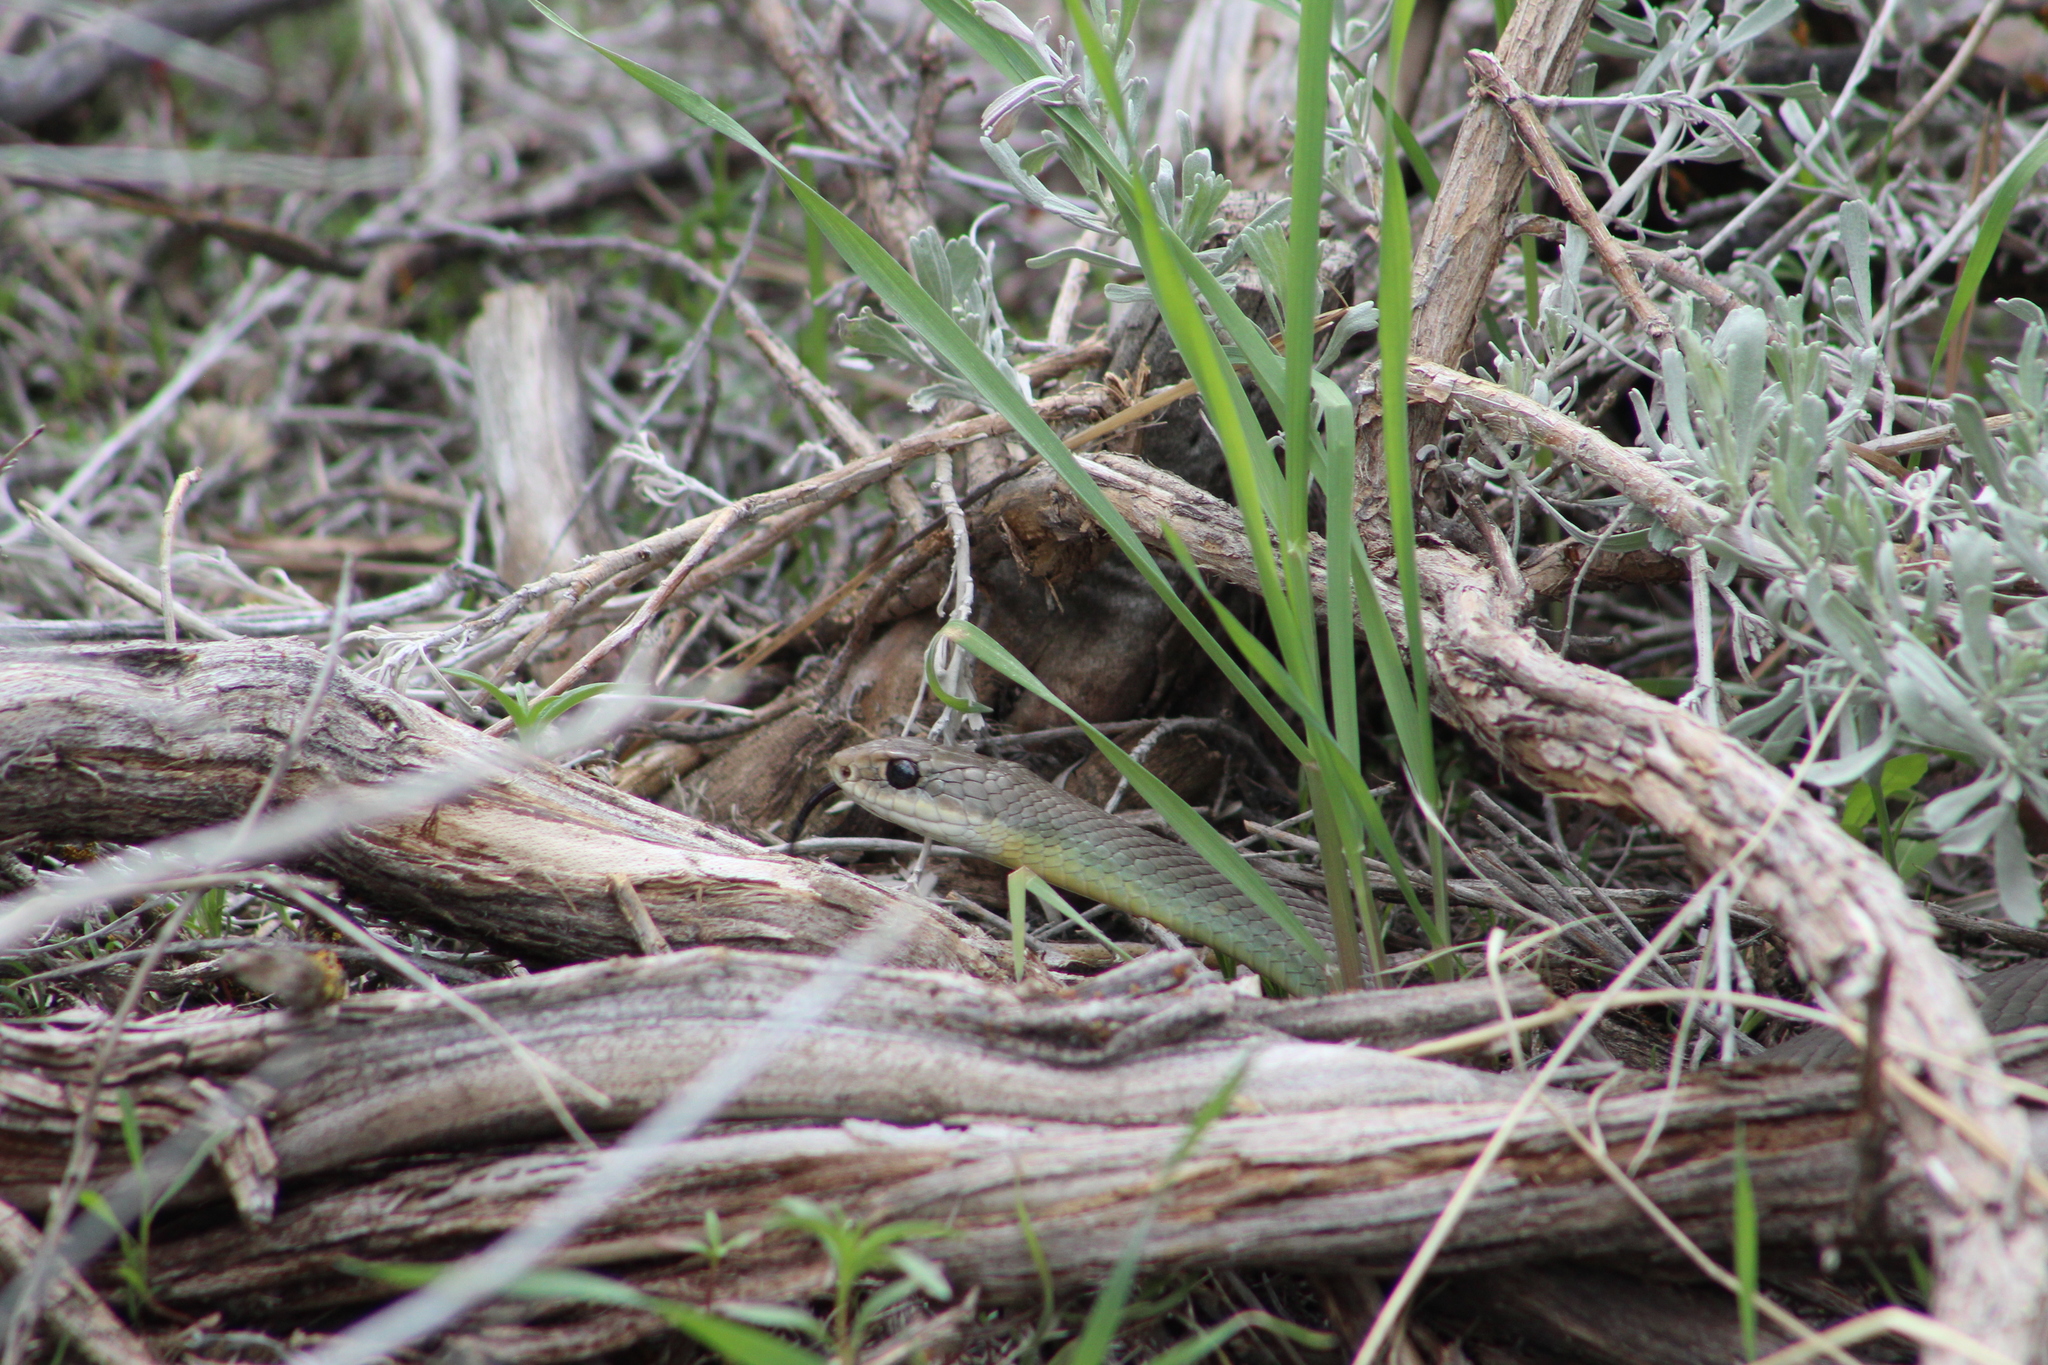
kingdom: Animalia
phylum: Chordata
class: Squamata
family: Colubridae
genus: Coluber
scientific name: Coluber constrictor
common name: Eastern racer
